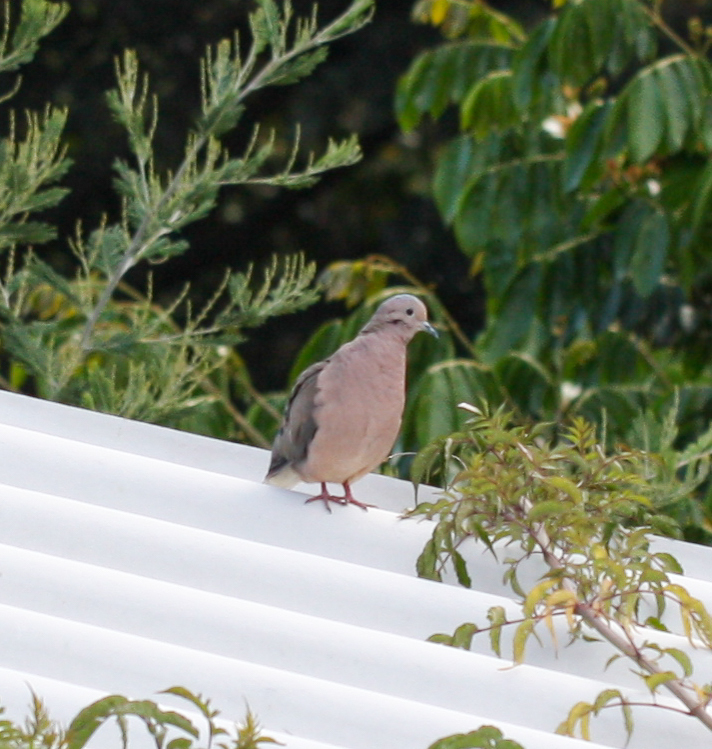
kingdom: Animalia
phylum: Chordata
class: Aves
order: Columbiformes
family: Columbidae
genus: Zenaida
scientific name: Zenaida auriculata
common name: Eared dove
